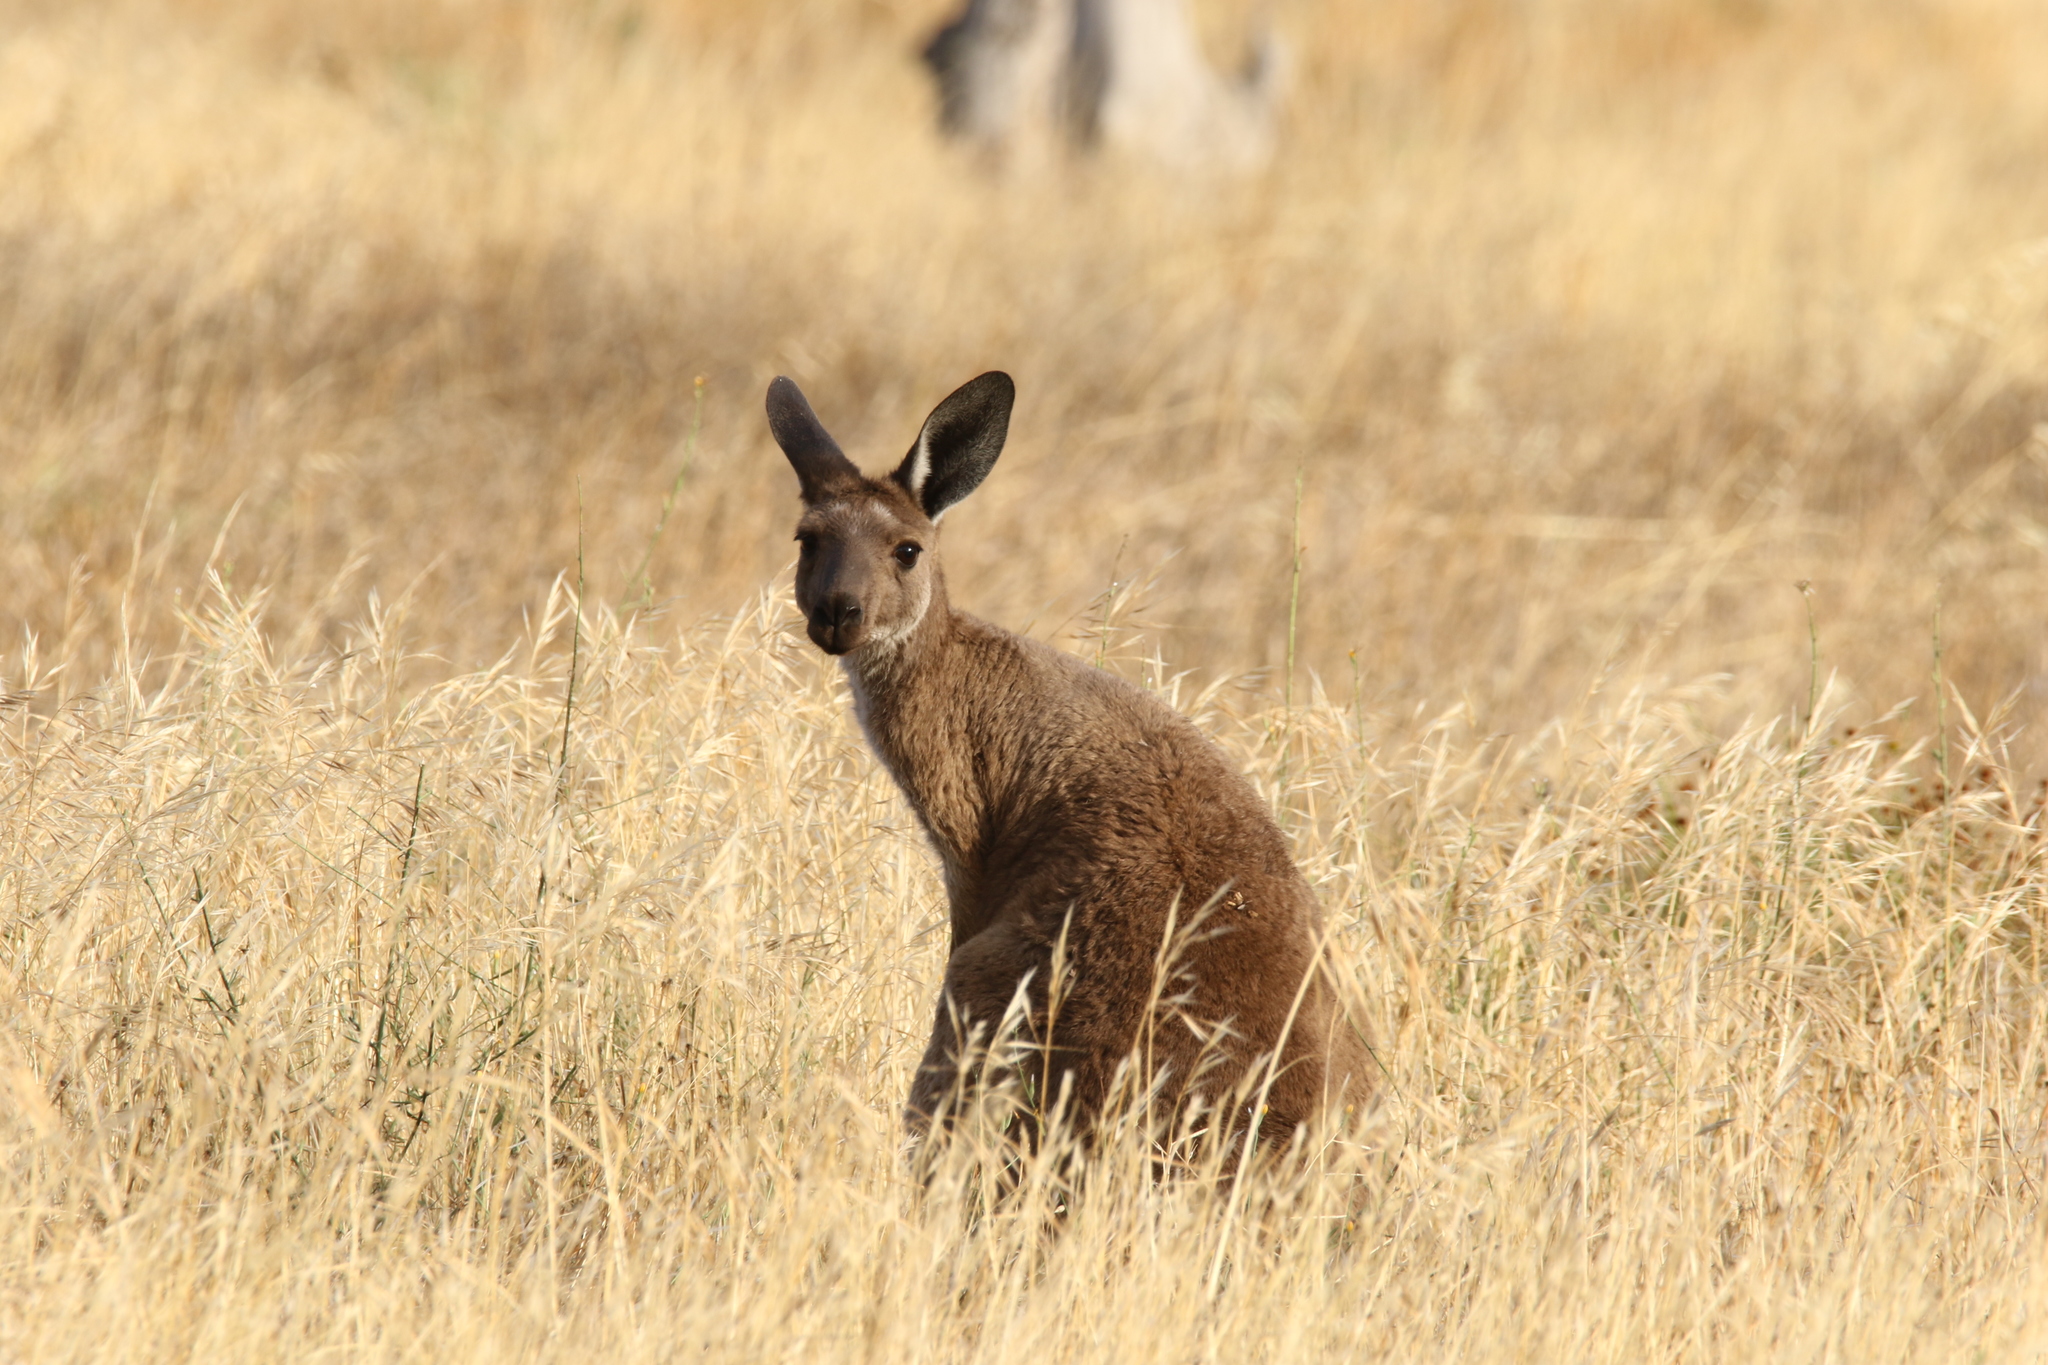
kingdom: Animalia
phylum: Chordata
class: Mammalia
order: Diprotodontia
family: Macropodidae
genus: Macropus
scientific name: Macropus fuliginosus
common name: Western grey kangaroo
